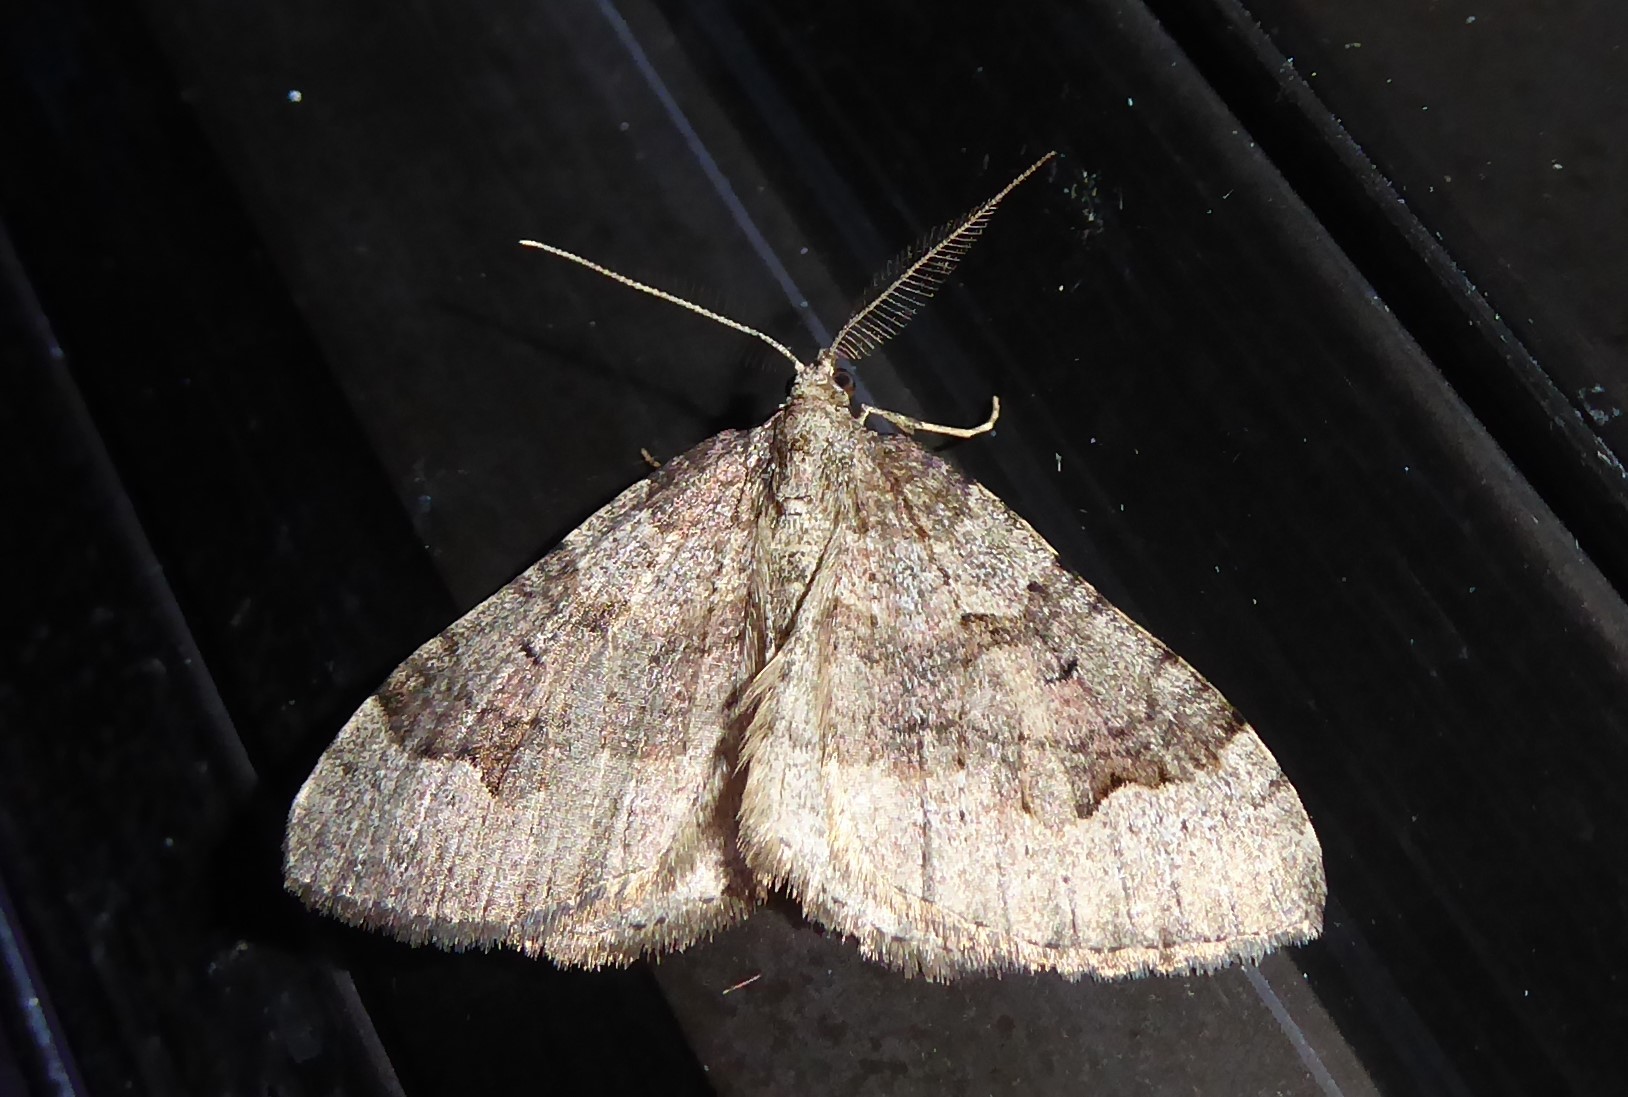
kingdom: Animalia
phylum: Arthropoda
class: Insecta
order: Lepidoptera
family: Geometridae
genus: Epyaxa
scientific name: Epyaxa rosearia
